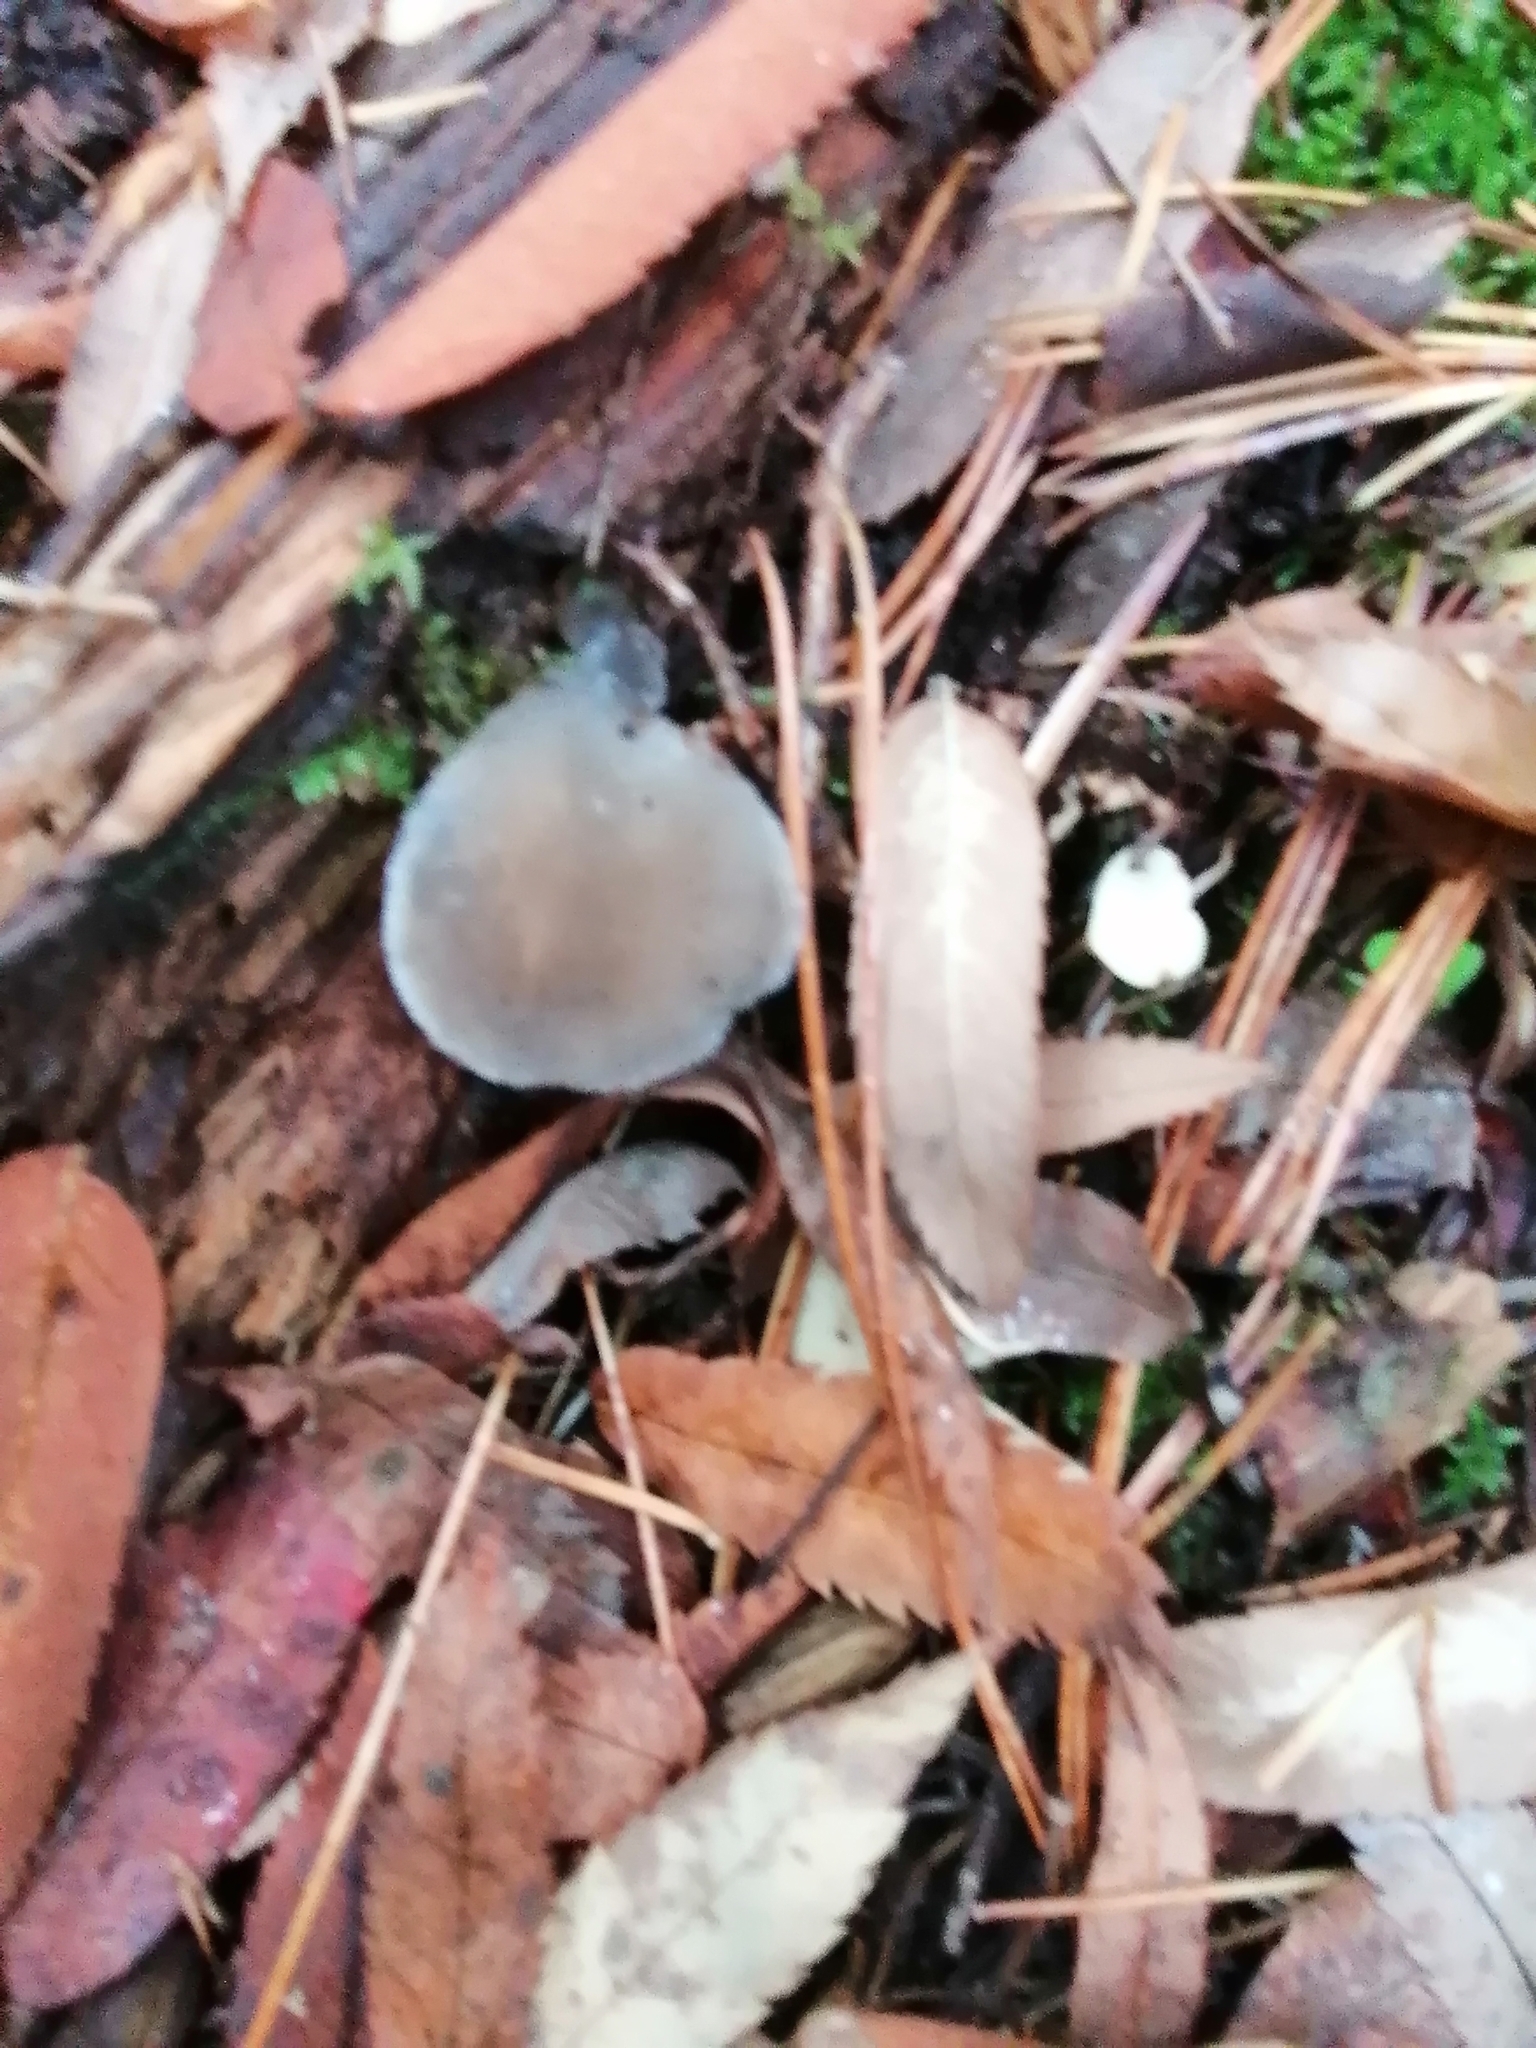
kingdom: Fungi
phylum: Basidiomycota
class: Agaricomycetes
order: Auriculariales
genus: Pseudohydnum
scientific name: Pseudohydnum gelatinosum
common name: Jelly tongue
